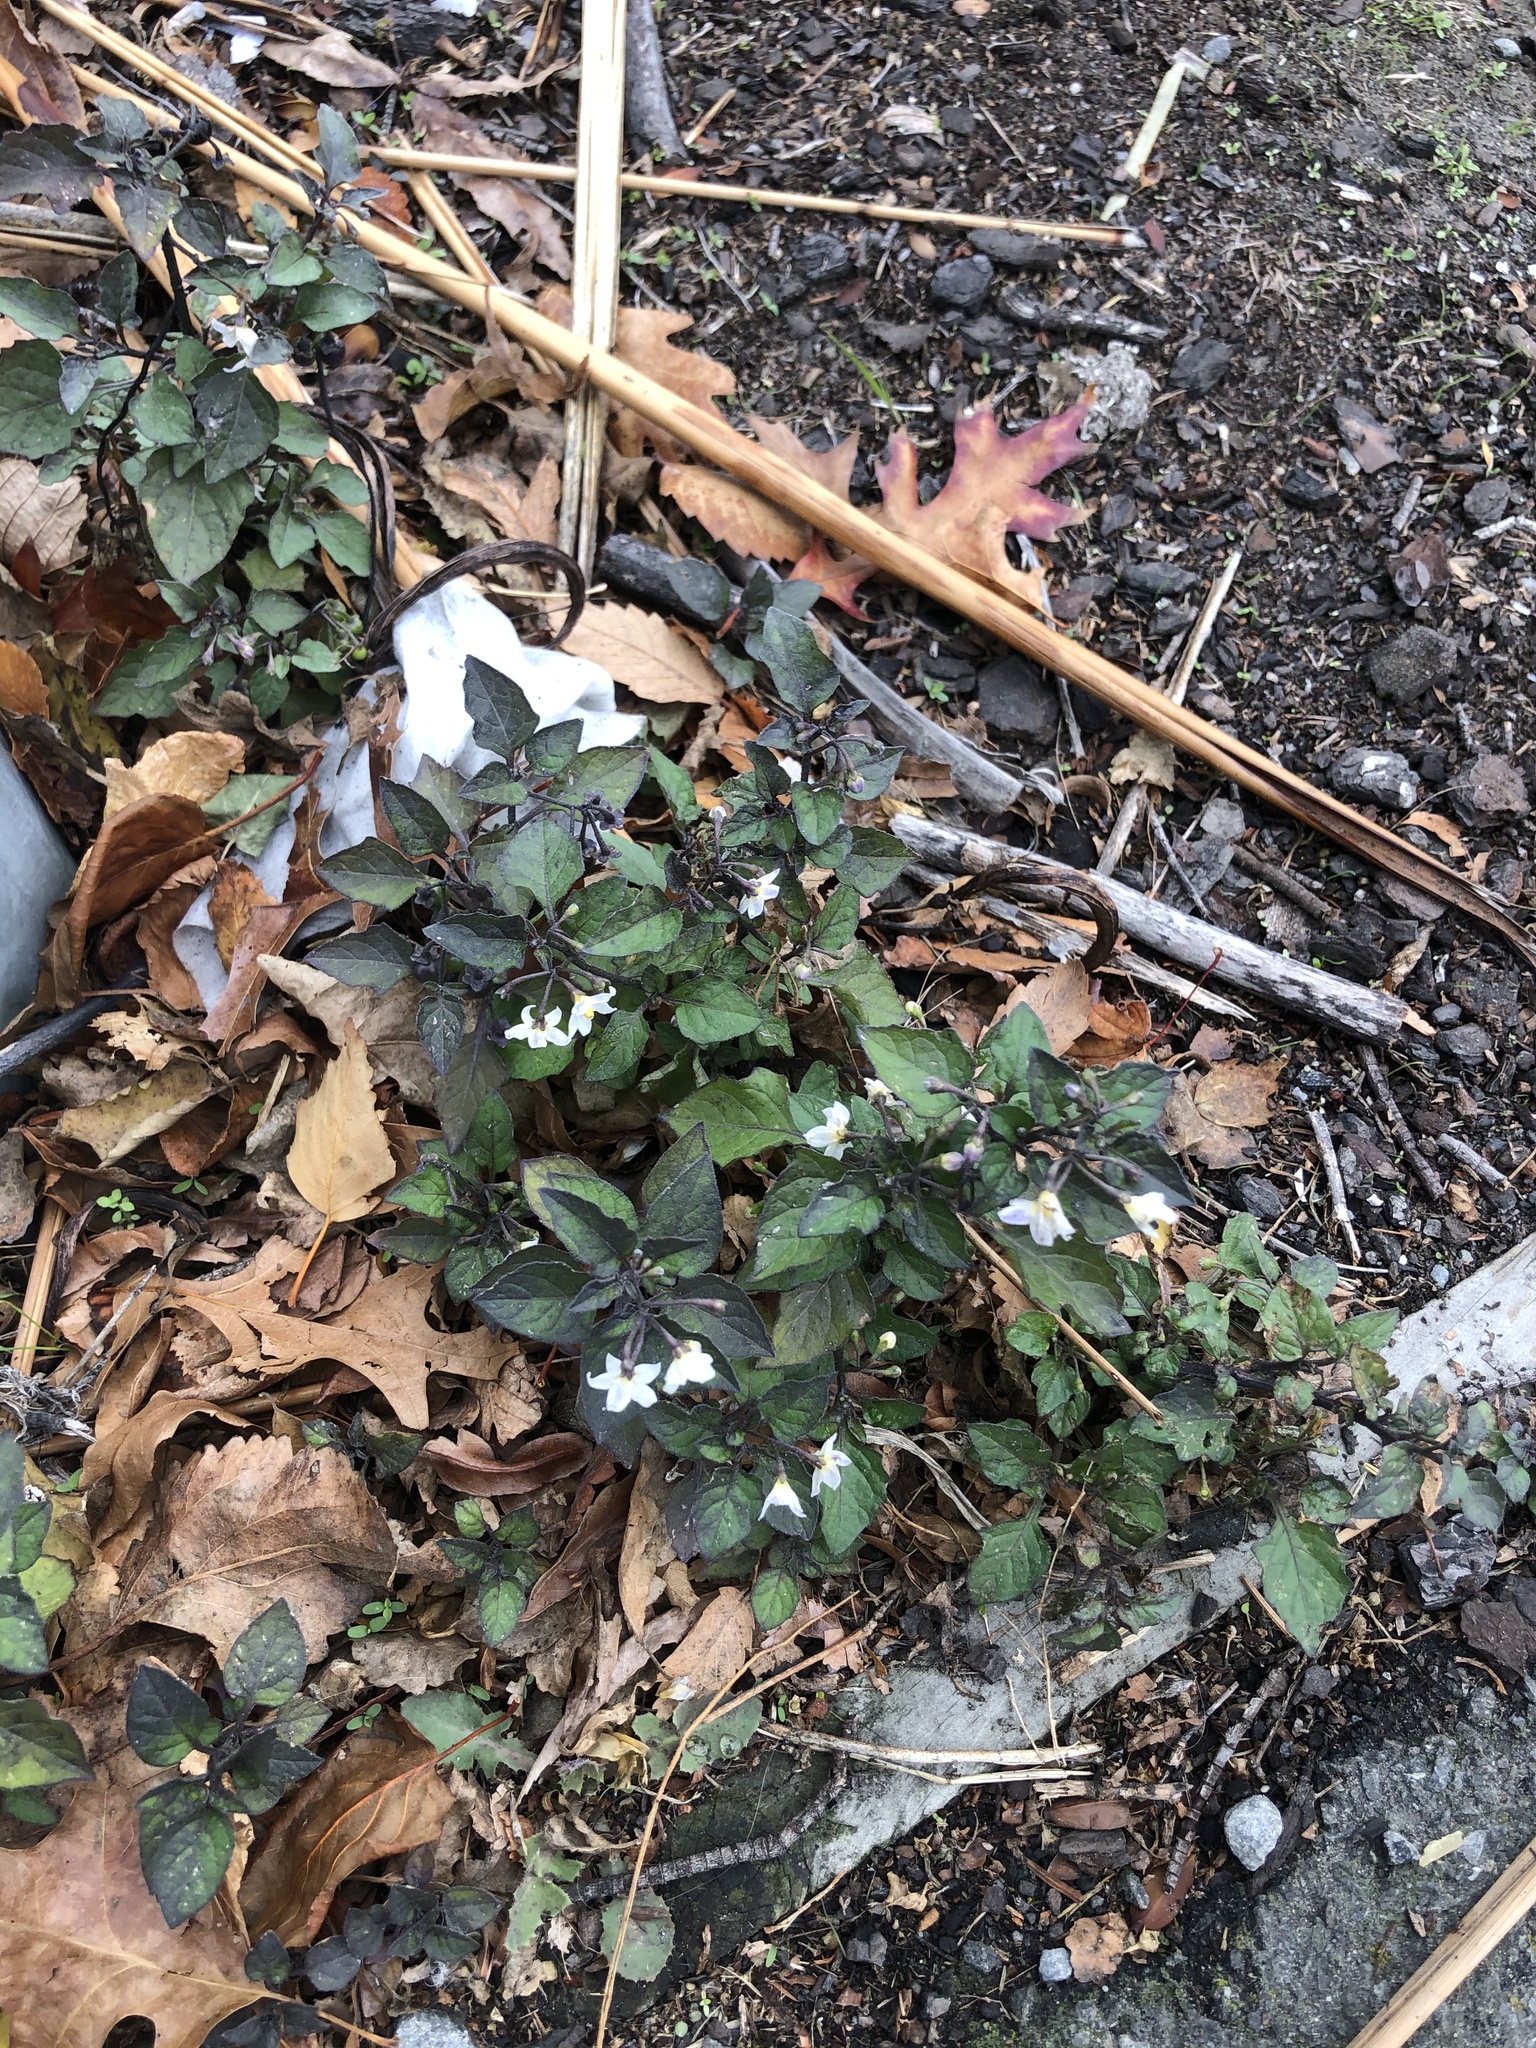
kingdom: Plantae
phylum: Tracheophyta
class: Magnoliopsida
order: Solanales
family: Solanaceae
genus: Solanum
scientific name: Solanum nigrum
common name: Black nightshade
